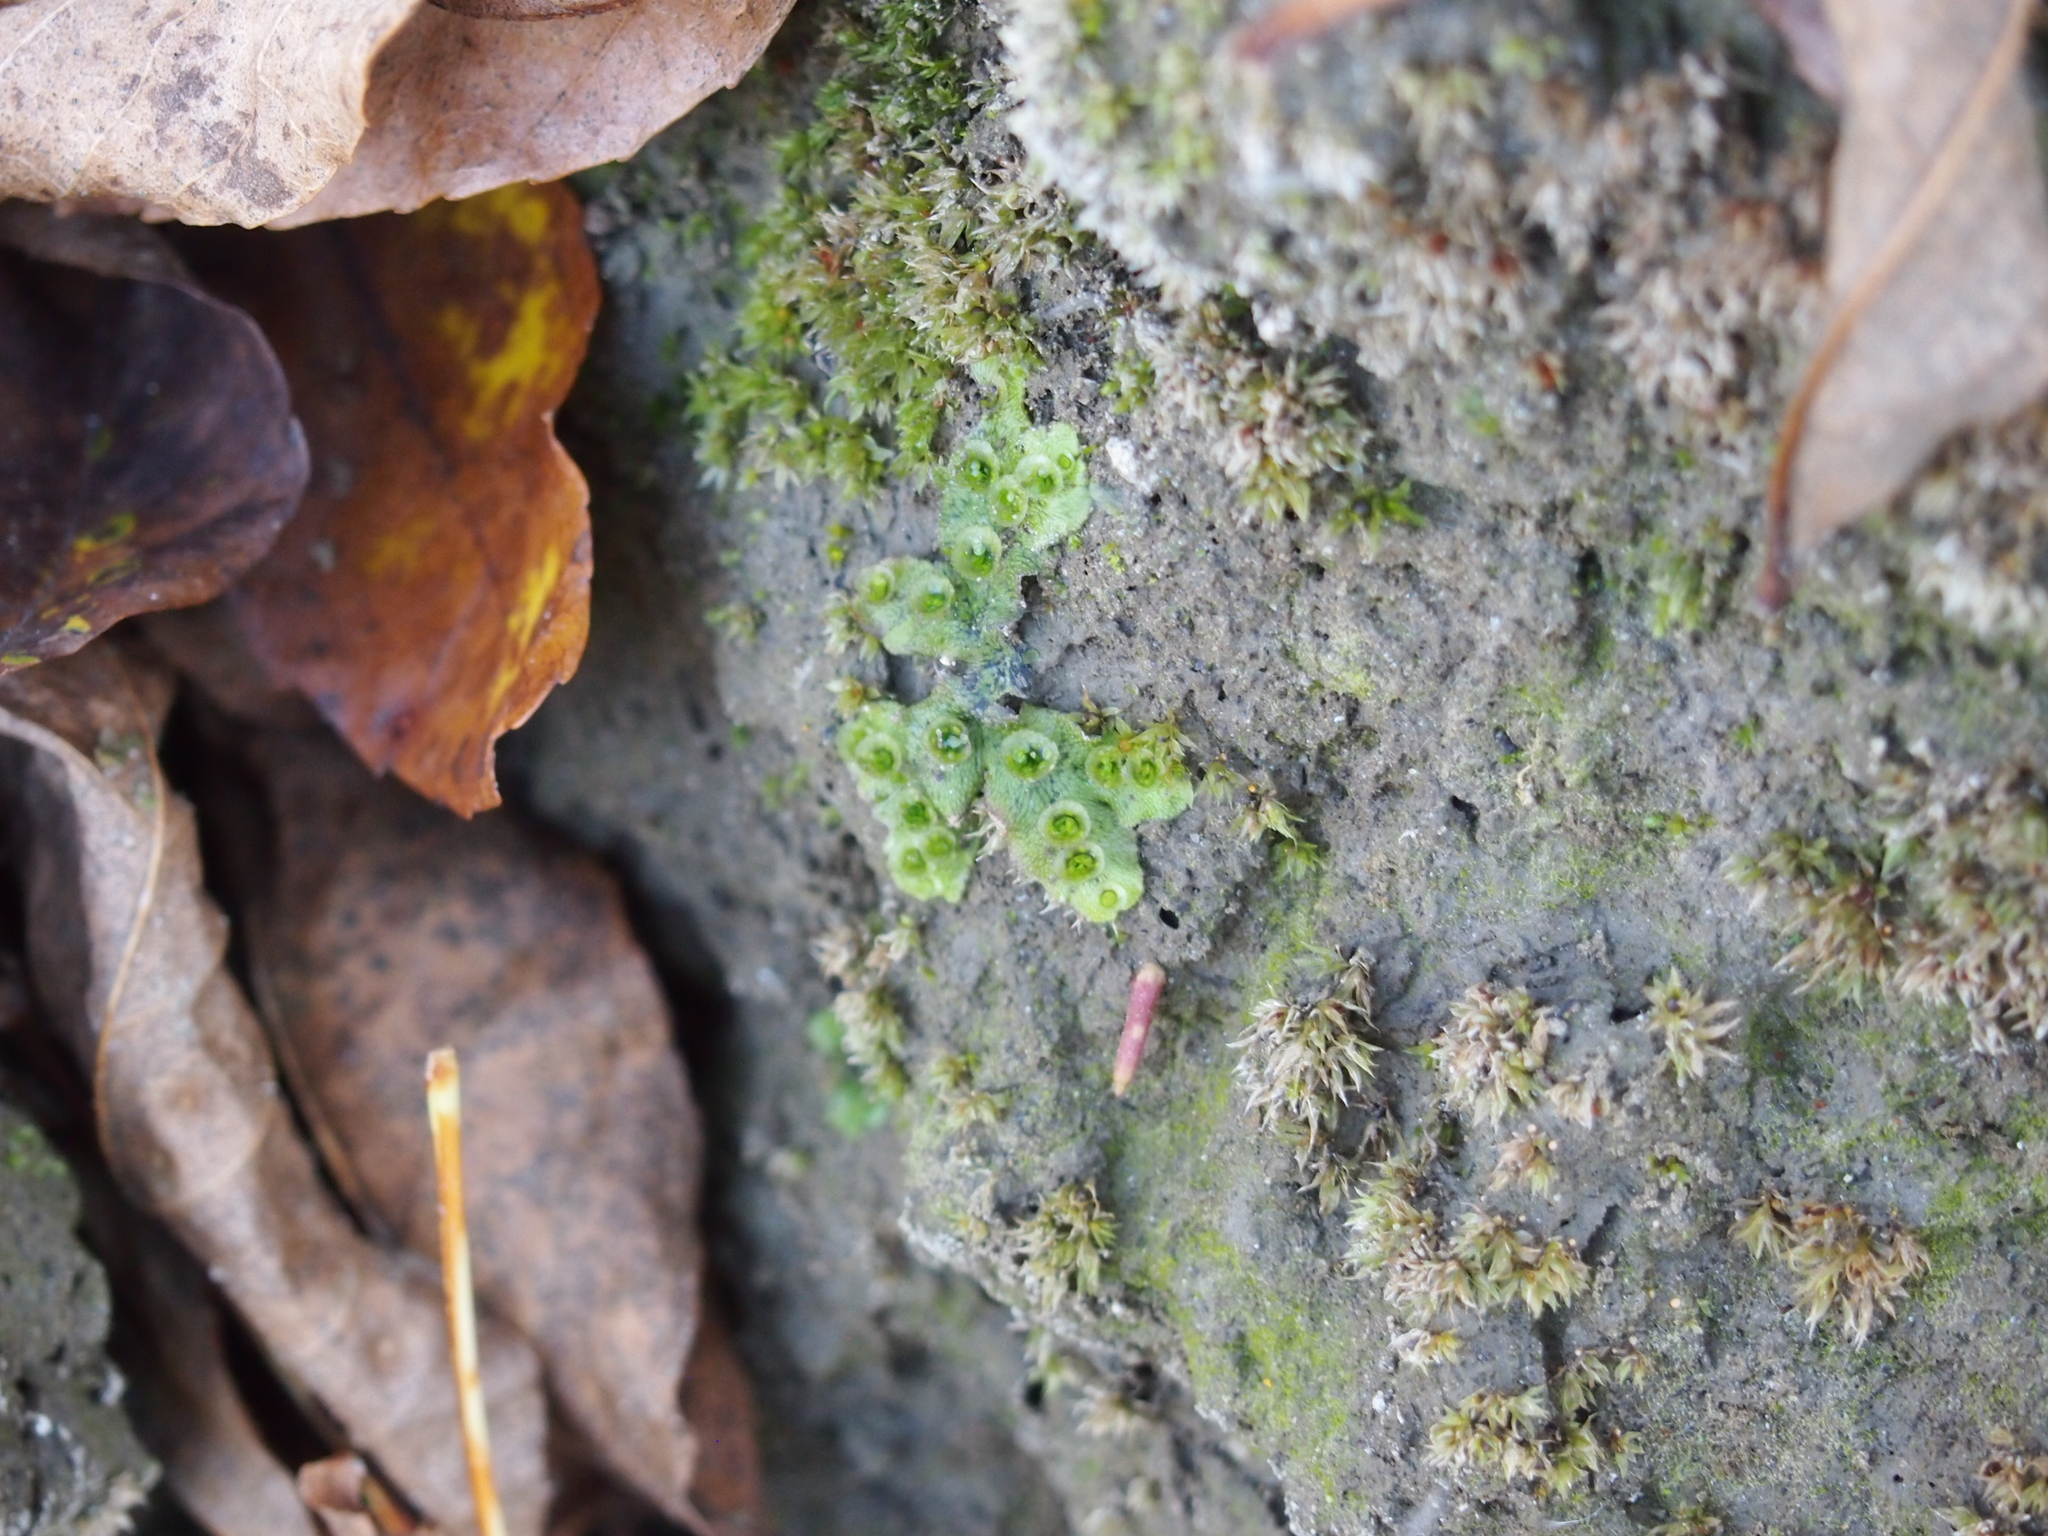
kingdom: Plantae
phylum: Marchantiophyta
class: Marchantiopsida
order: Marchantiales
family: Marchantiaceae
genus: Marchantia
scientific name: Marchantia polymorpha
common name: Common liverwort
